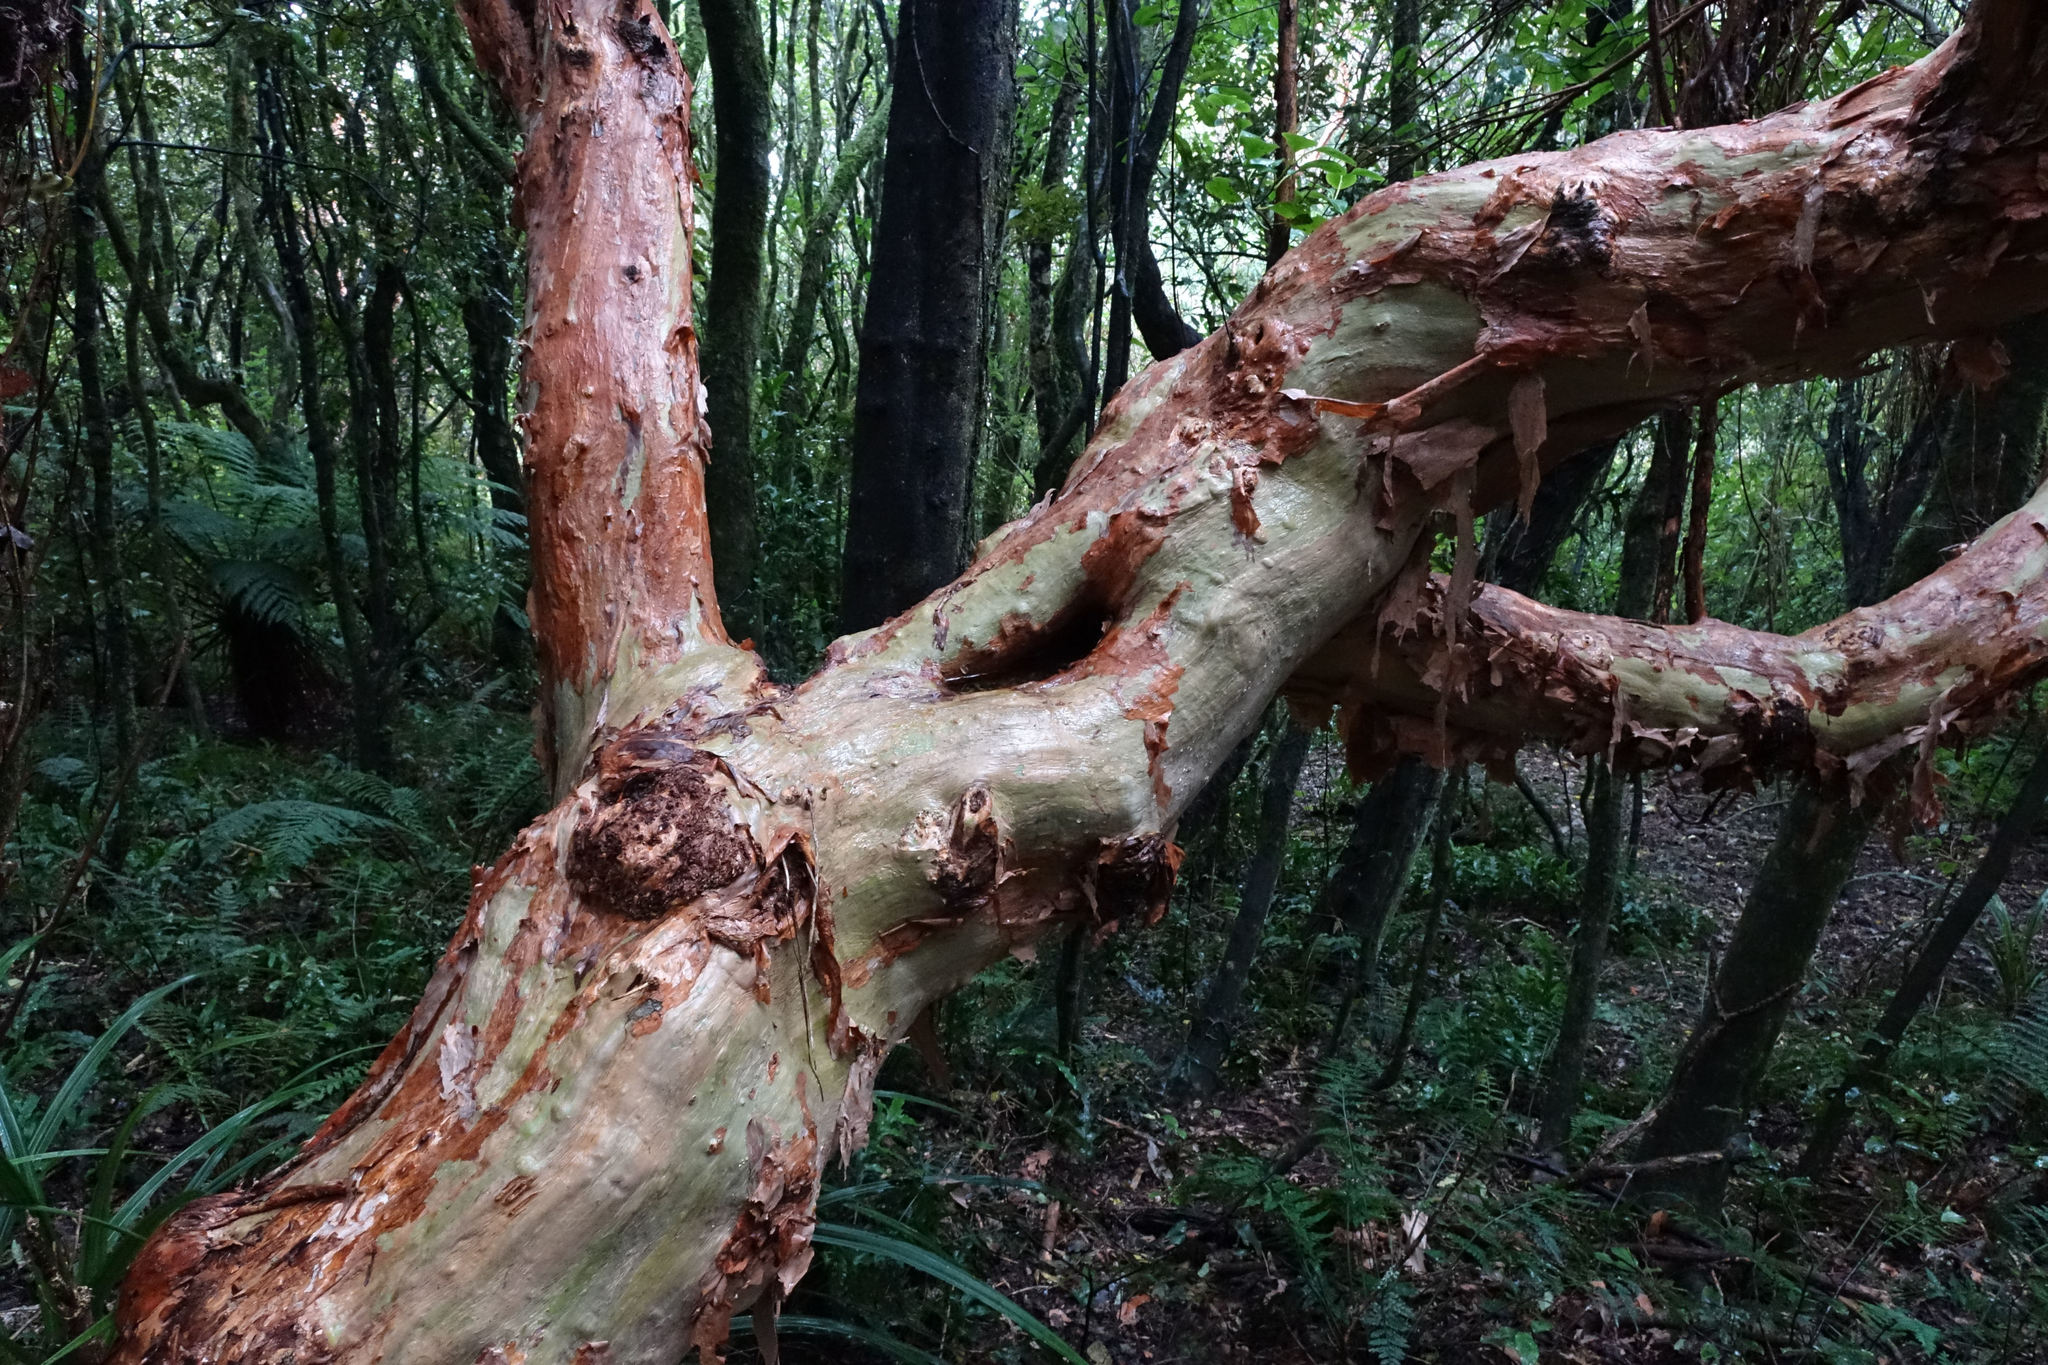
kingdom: Plantae
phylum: Tracheophyta
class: Magnoliopsida
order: Myrtales
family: Onagraceae
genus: Fuchsia
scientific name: Fuchsia excorticata
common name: Tree fuchsia
